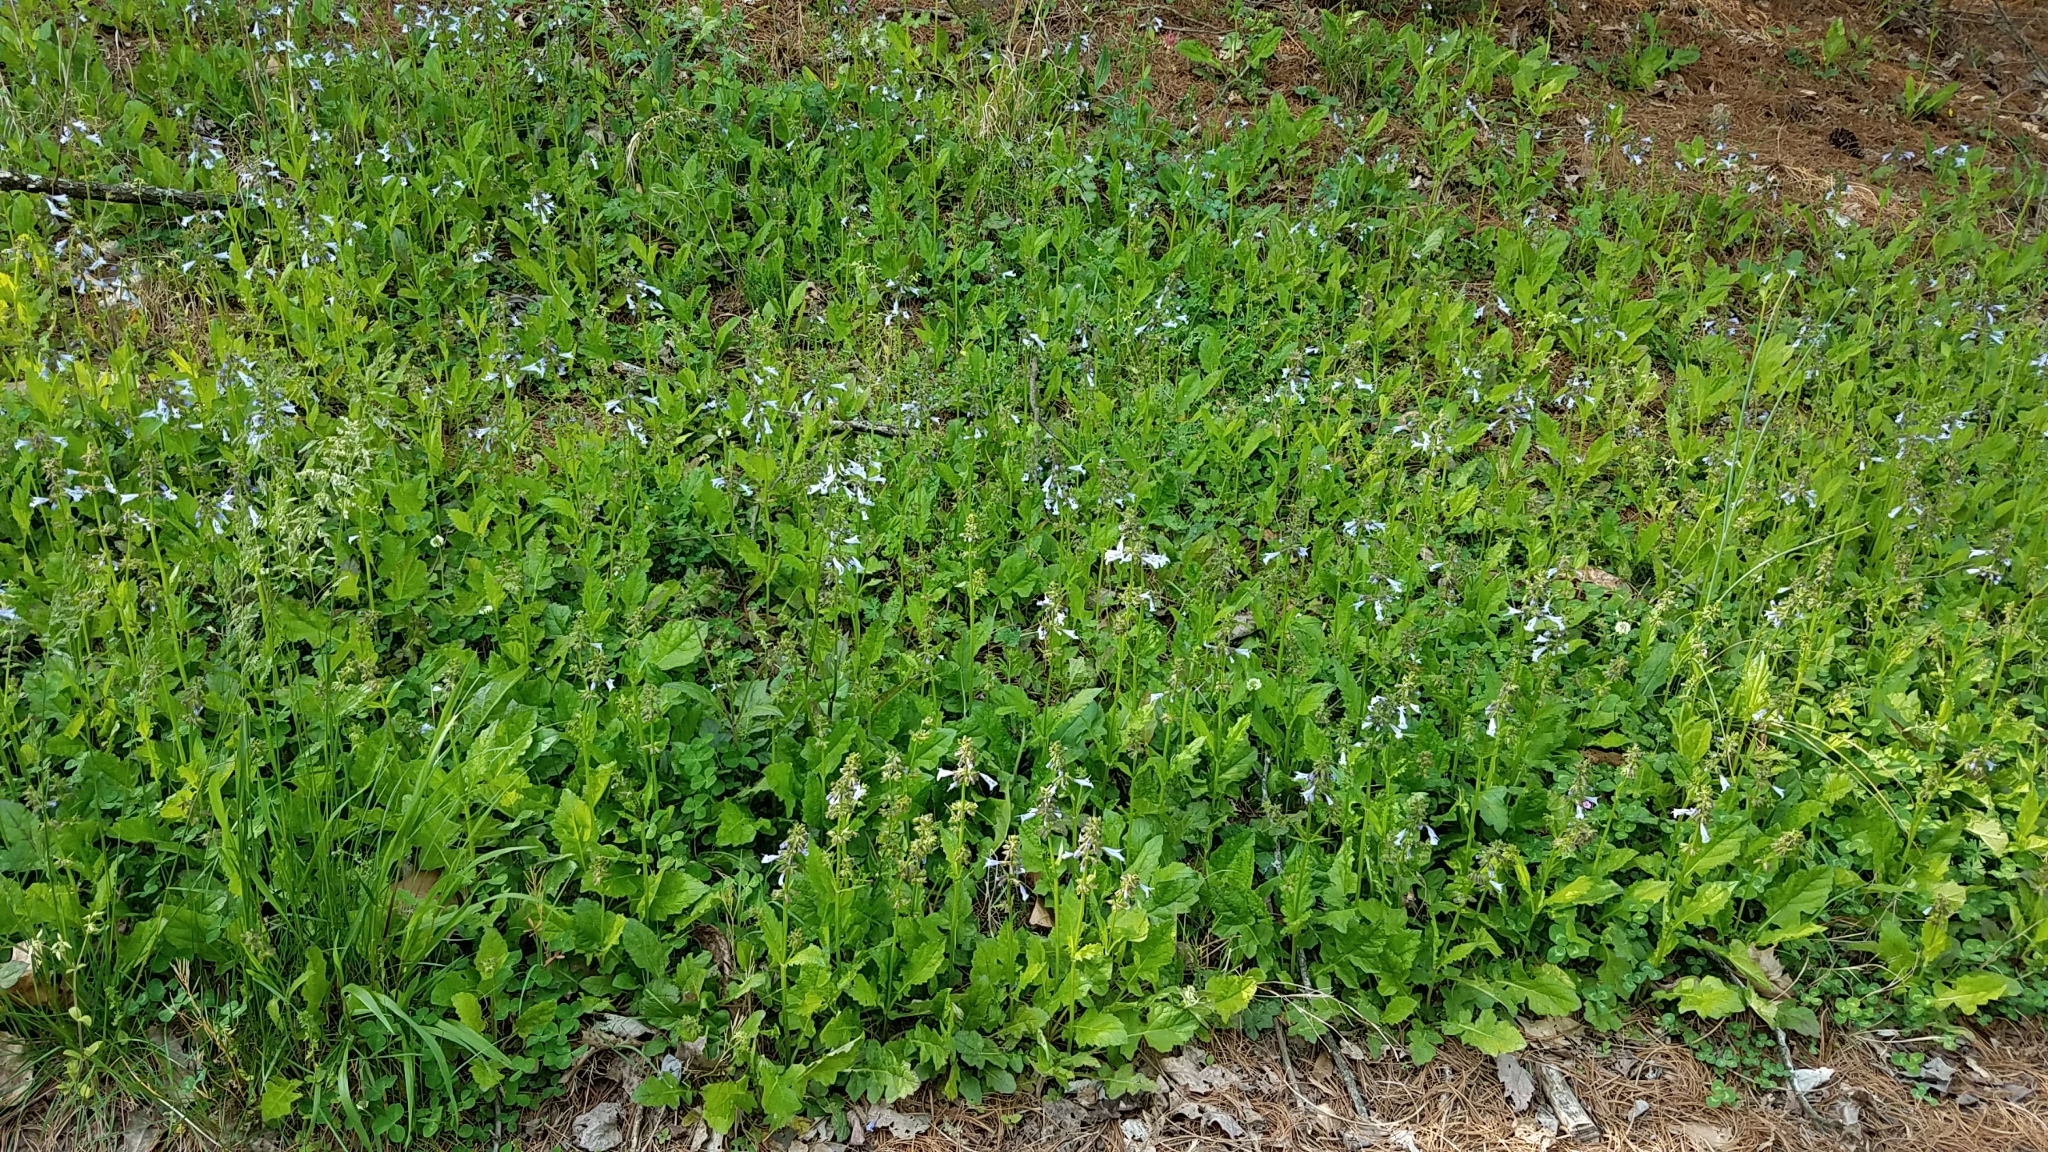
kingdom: Plantae
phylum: Tracheophyta
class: Magnoliopsida
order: Lamiales
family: Lamiaceae
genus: Salvia
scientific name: Salvia lyrata
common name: Cancerweed
